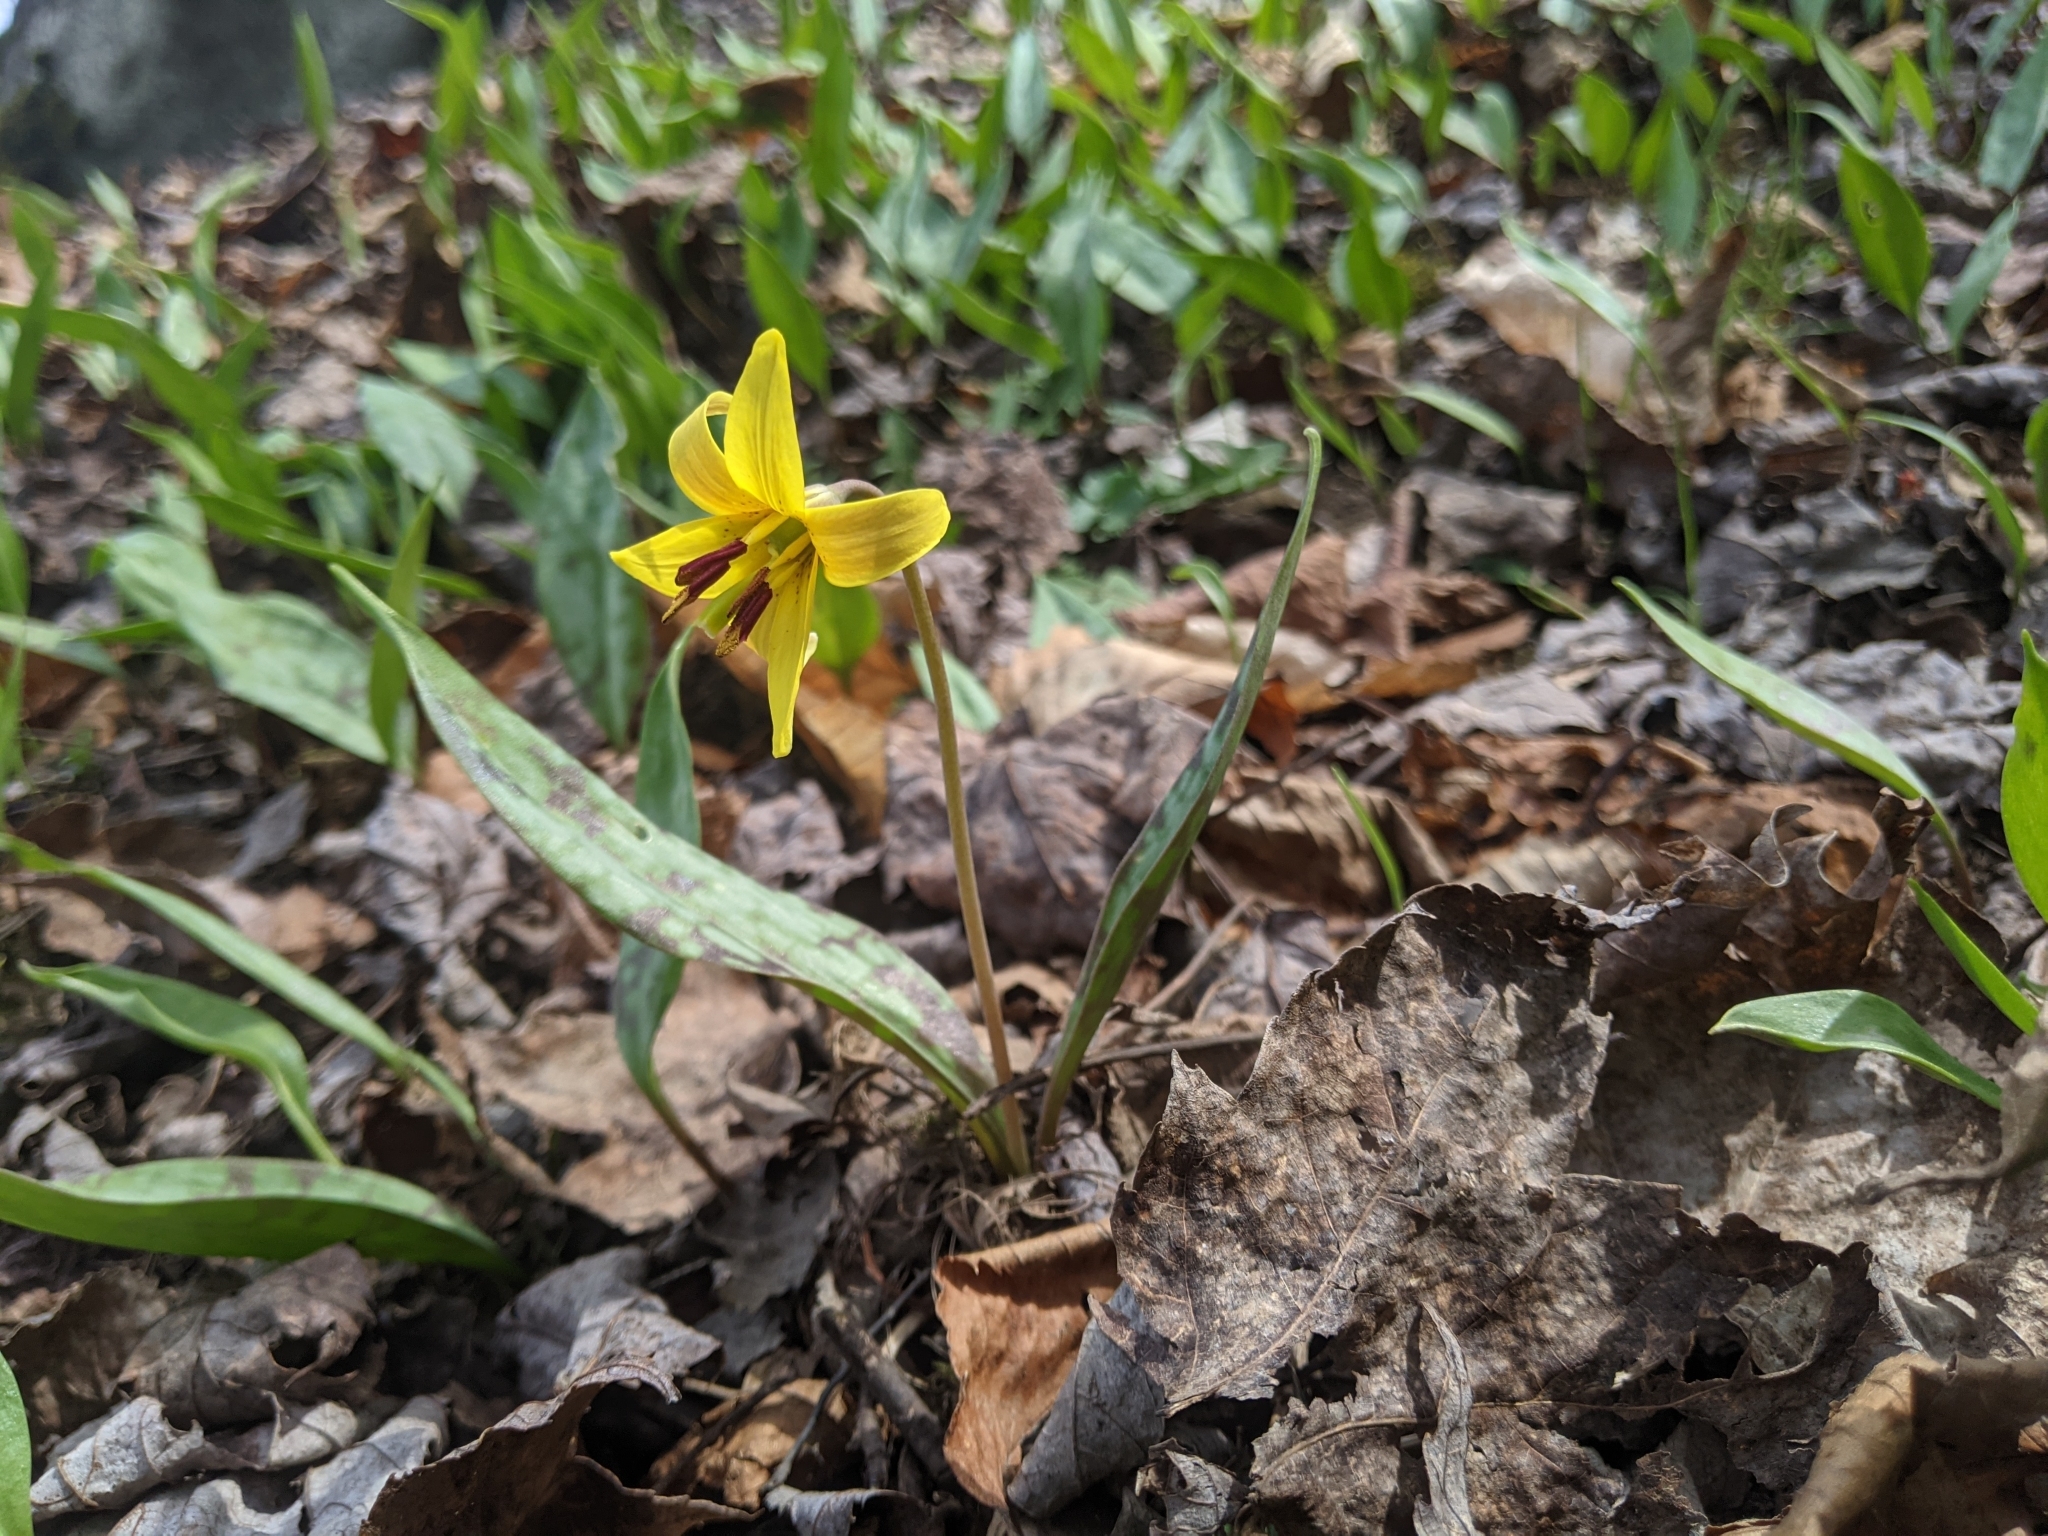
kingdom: Plantae
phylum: Tracheophyta
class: Liliopsida
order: Liliales
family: Liliaceae
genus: Erythronium
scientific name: Erythronium americanum
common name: Yellow adder's-tongue
